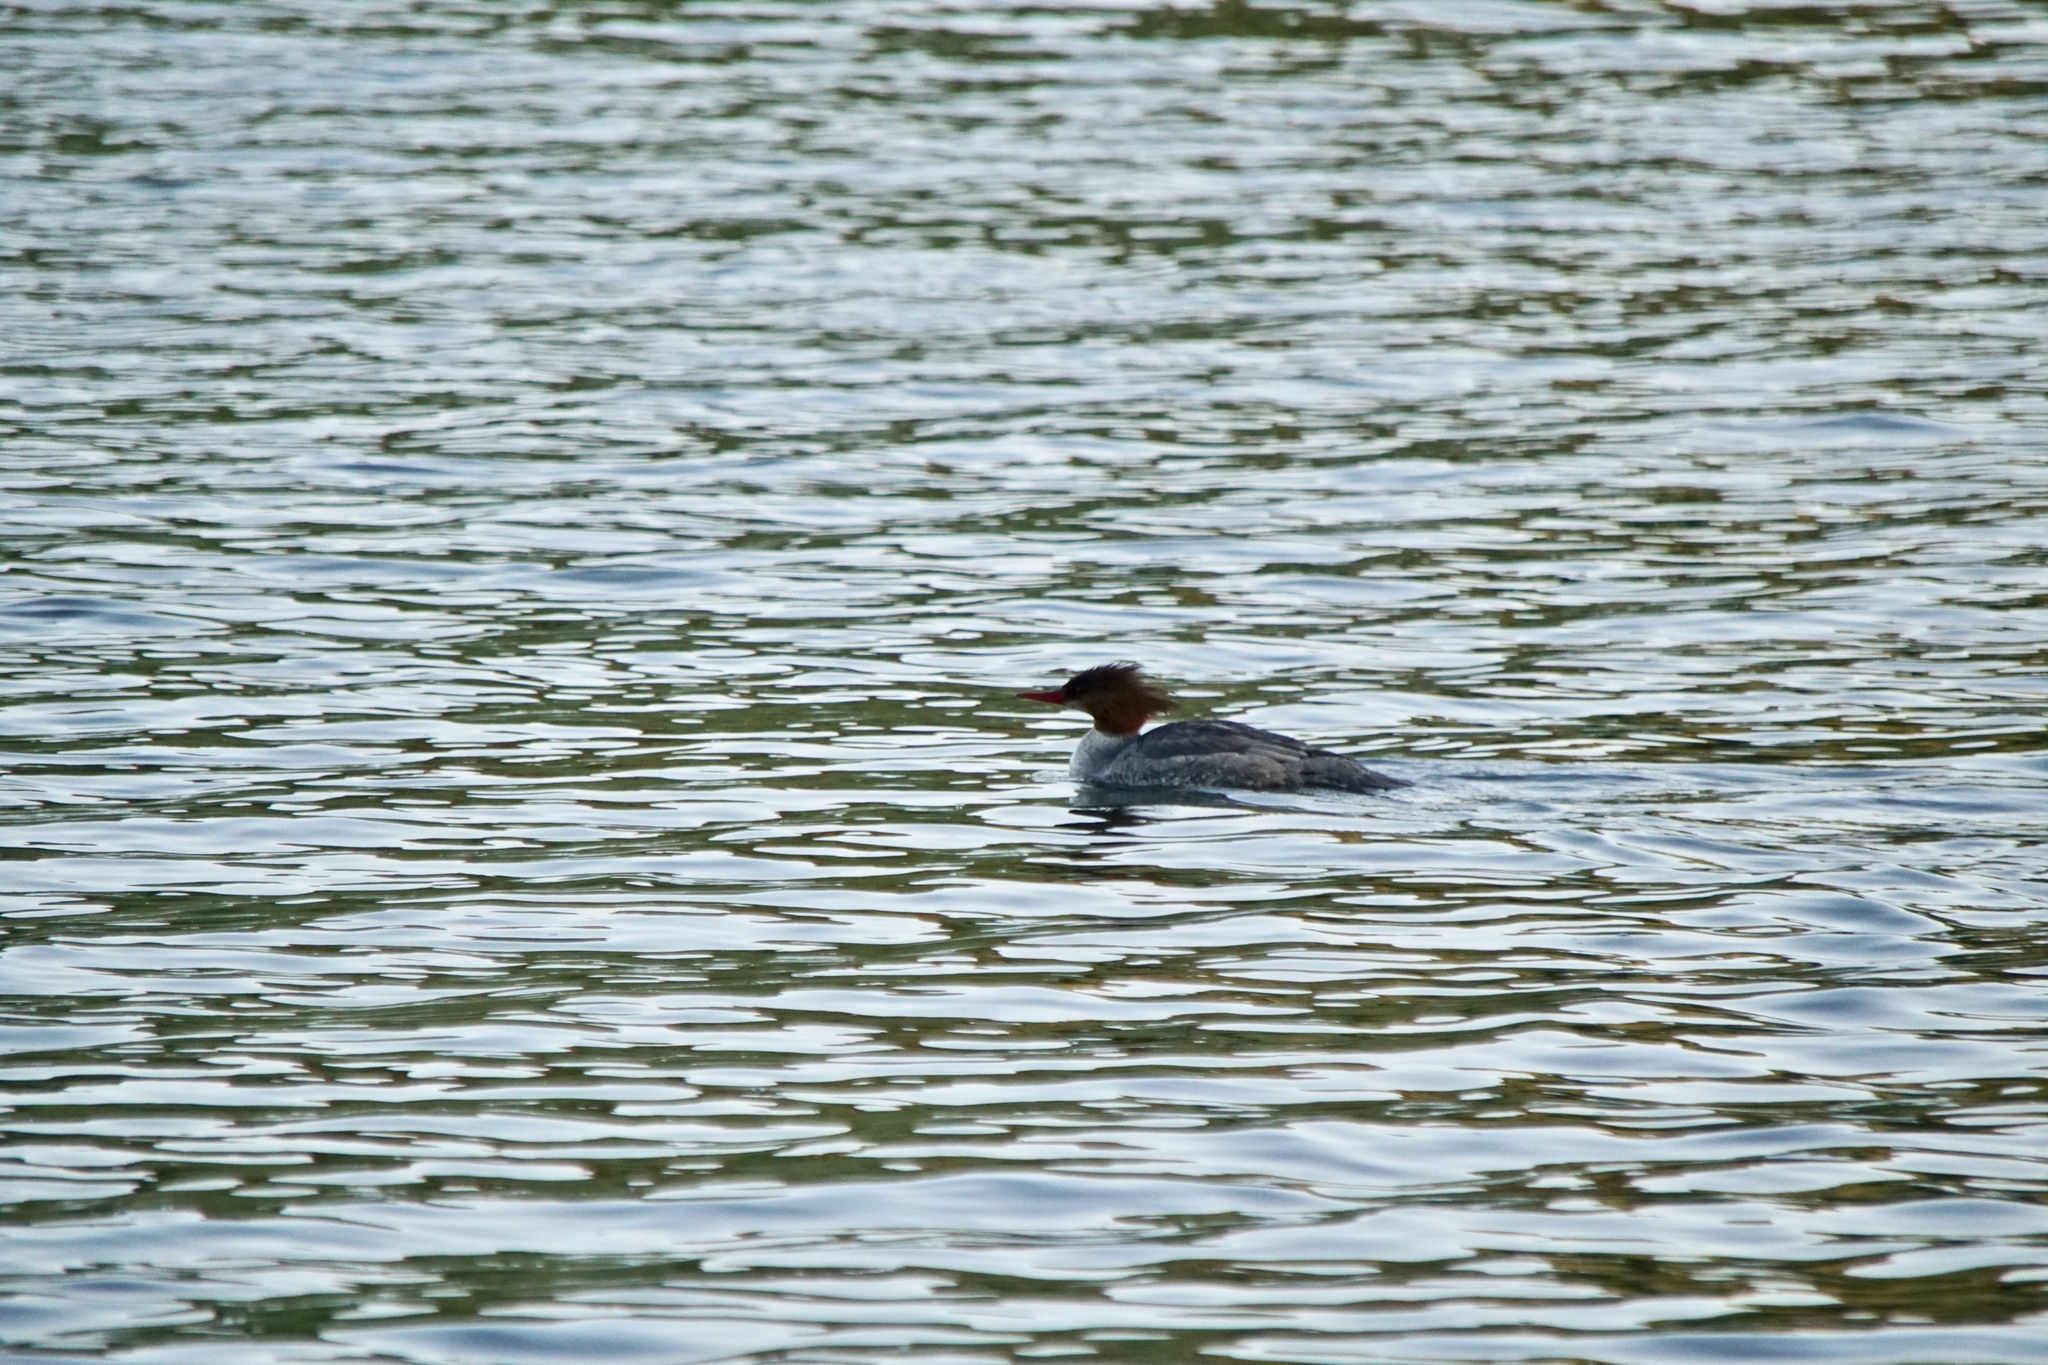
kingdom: Animalia
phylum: Chordata
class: Aves
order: Anseriformes
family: Anatidae
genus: Mergus
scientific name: Mergus merganser
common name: Common merganser
